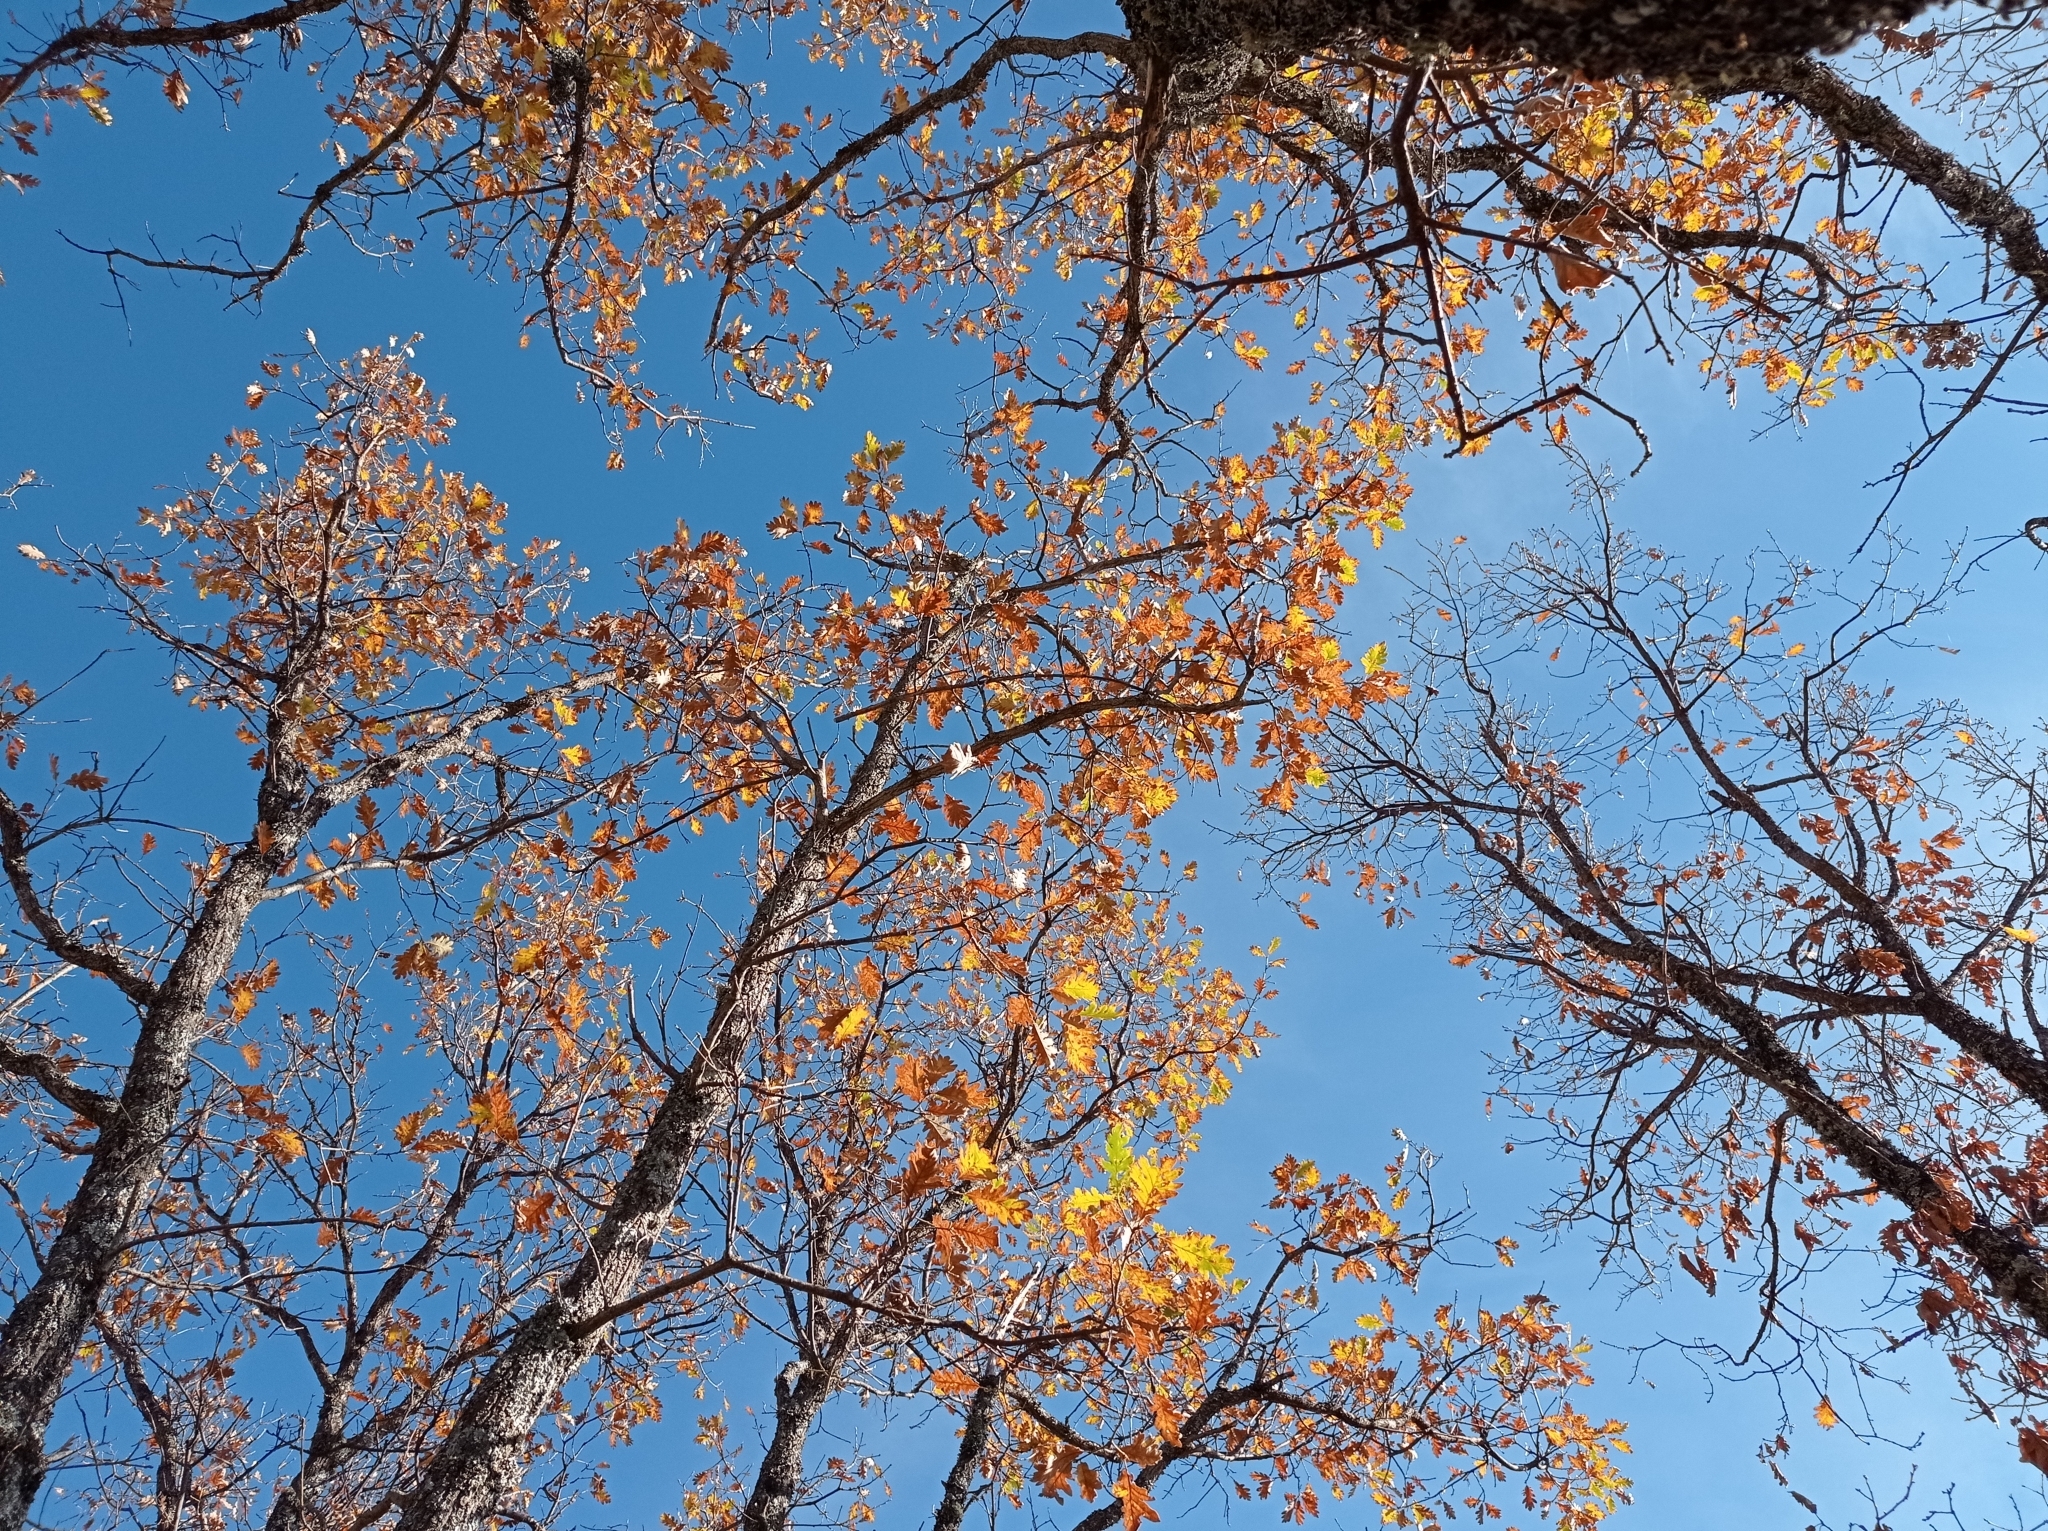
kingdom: Plantae
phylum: Tracheophyta
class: Magnoliopsida
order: Fagales
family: Fagaceae
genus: Quercus
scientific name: Quercus pyrenaica
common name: Pyrenean oak
